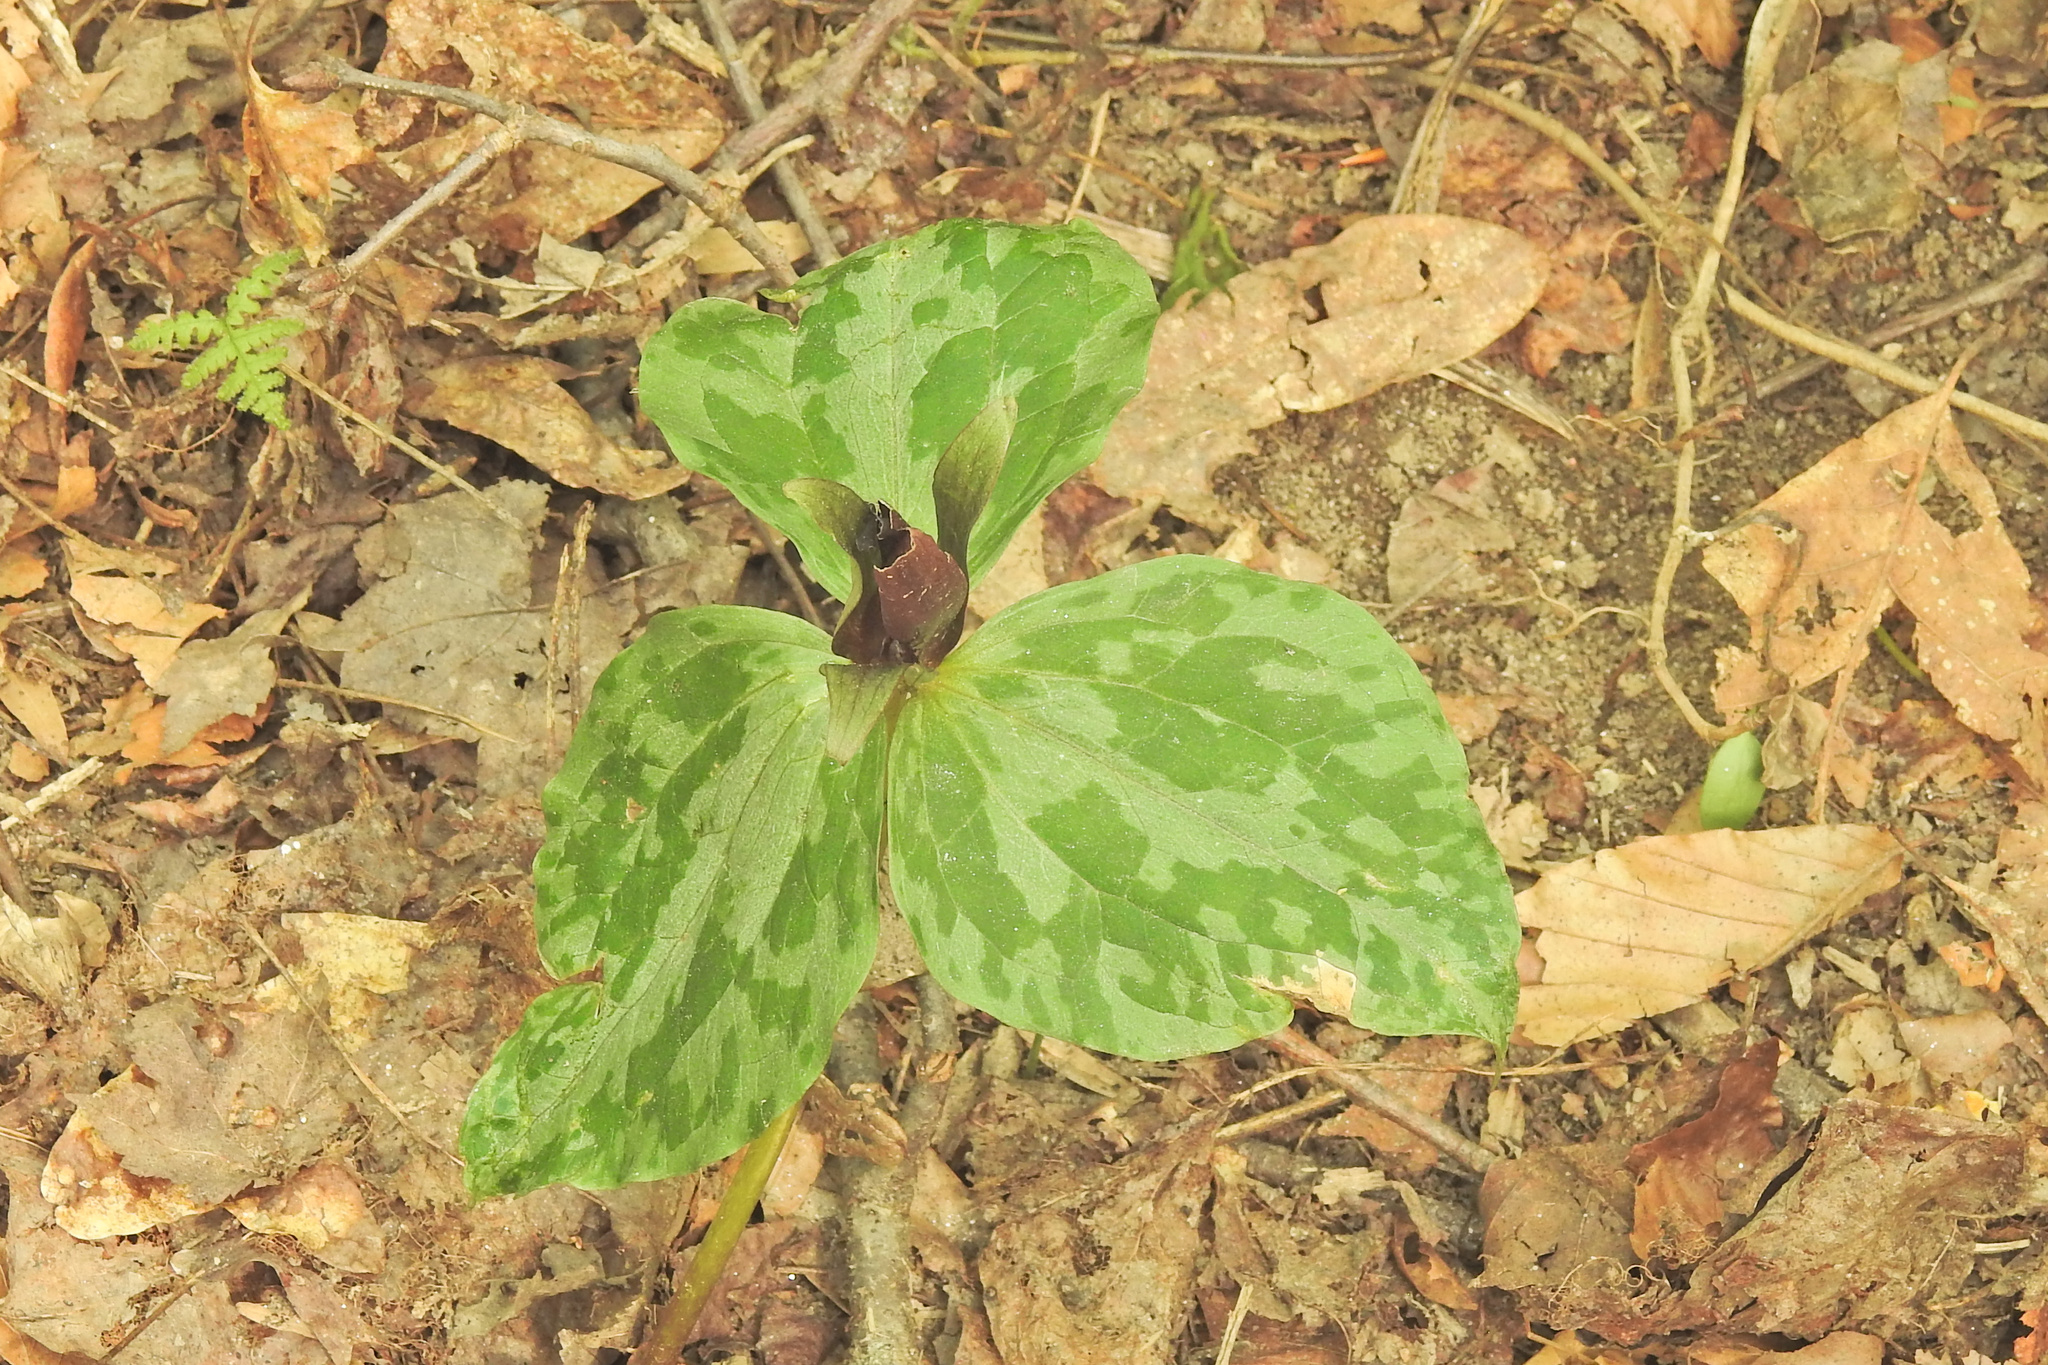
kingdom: Plantae
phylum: Tracheophyta
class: Liliopsida
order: Liliales
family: Melanthiaceae
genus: Trillium
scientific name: Trillium cuneatum
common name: Cuneate trillium
